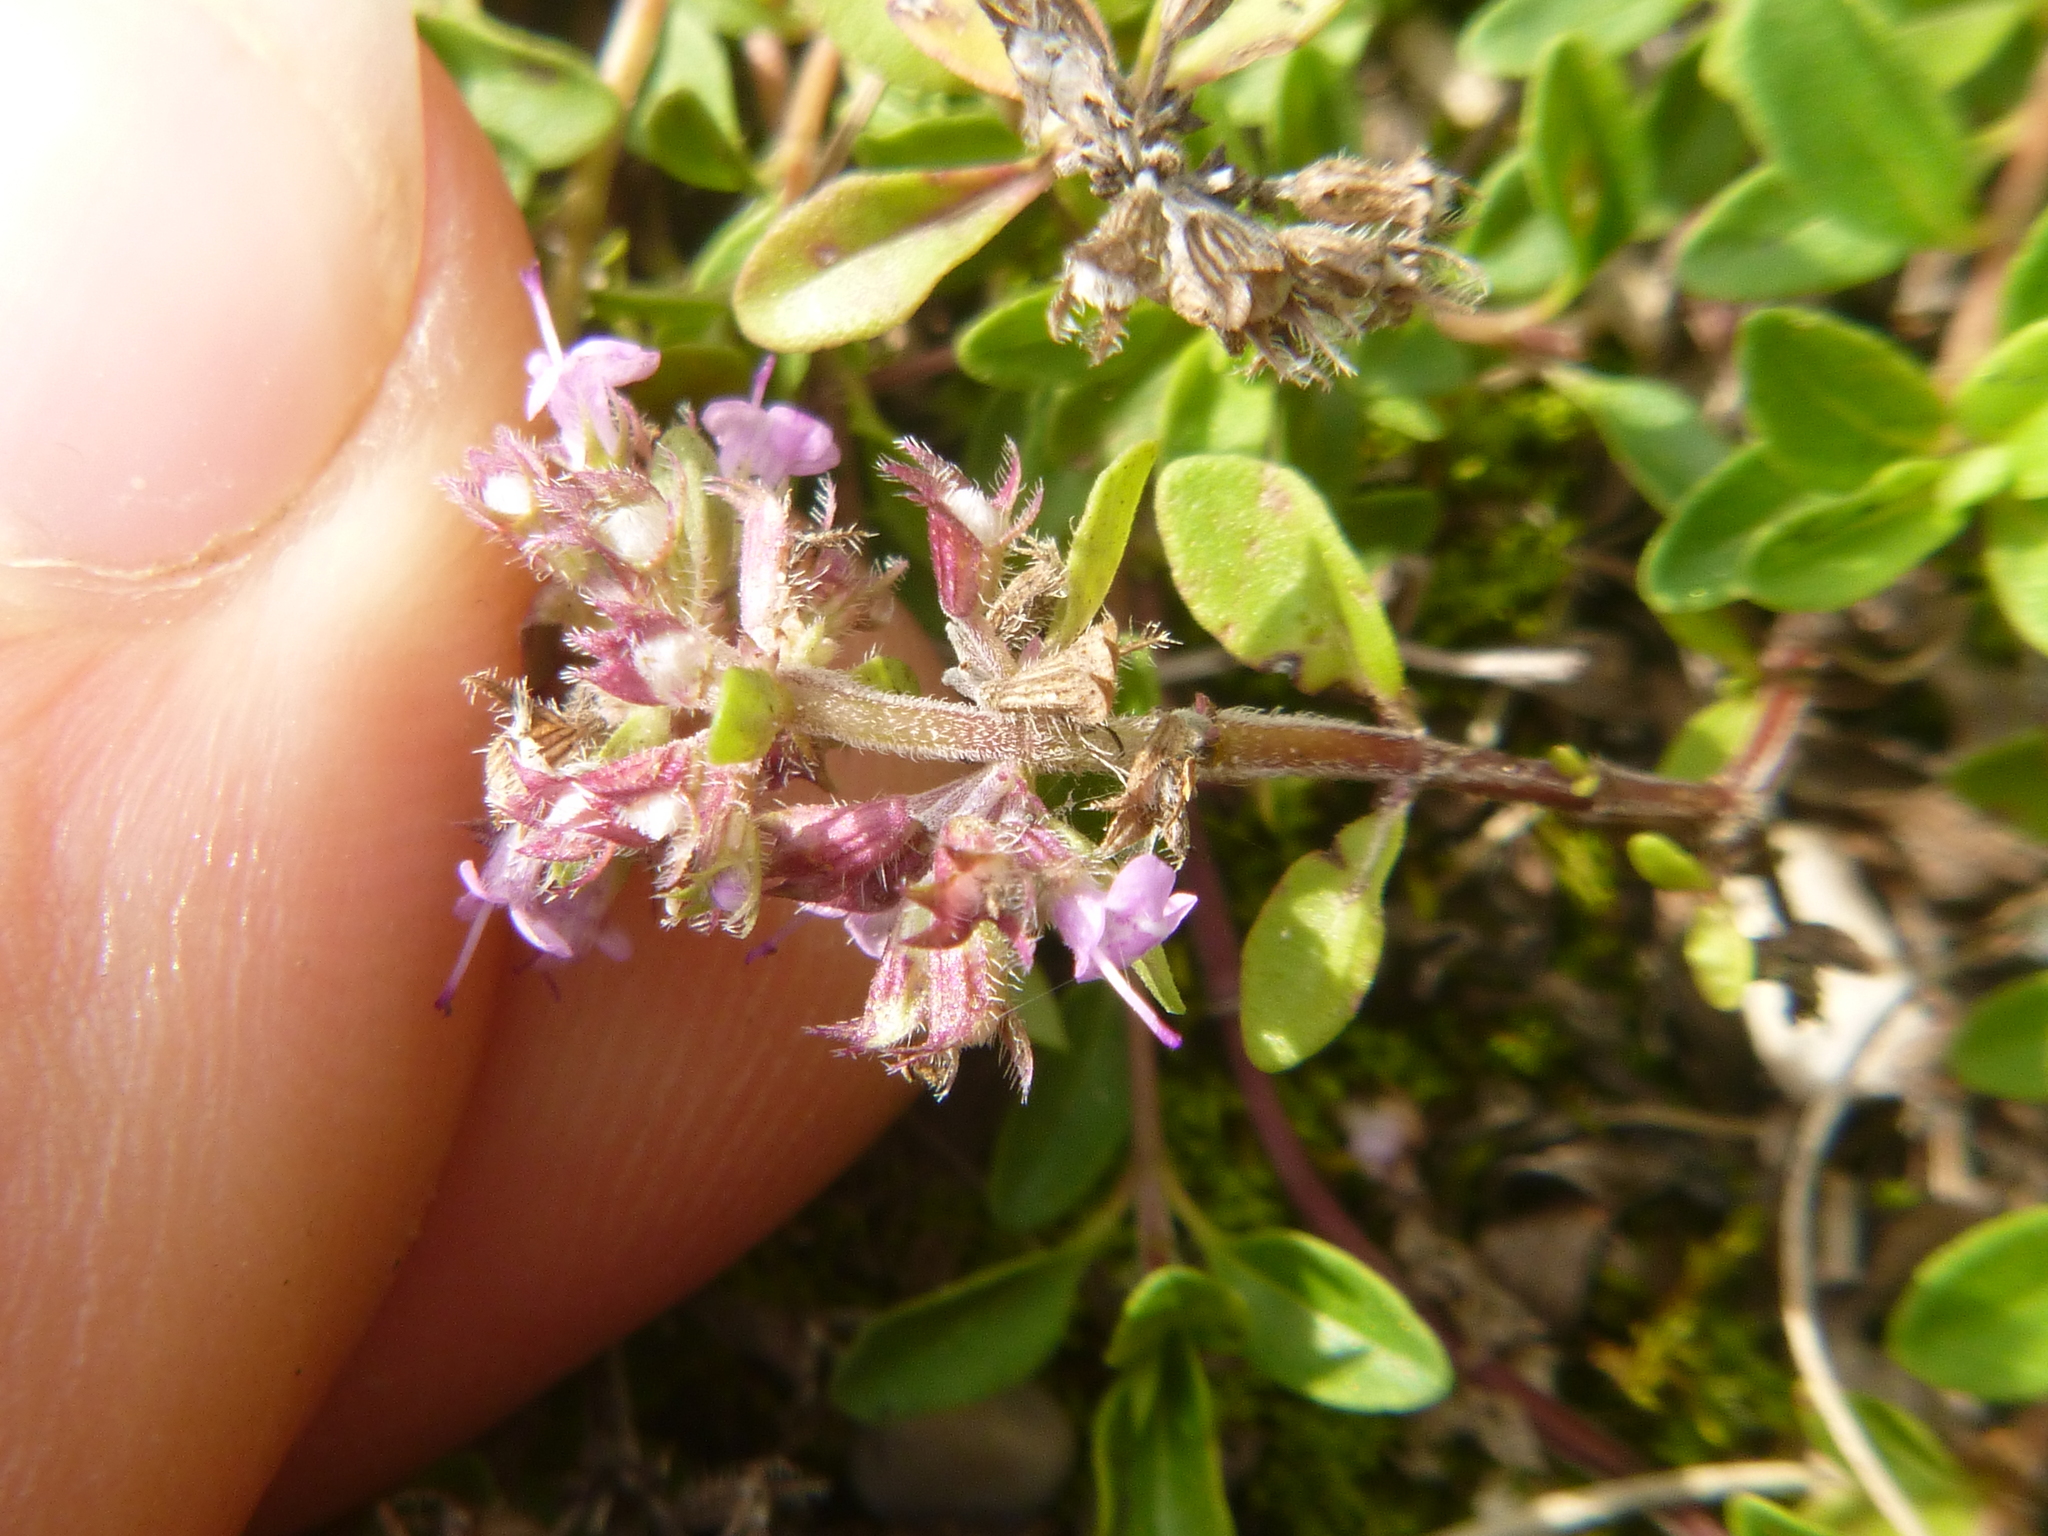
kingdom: Plantae
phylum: Tracheophyta
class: Magnoliopsida
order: Lamiales
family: Lamiaceae
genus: Thymus
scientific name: Thymus pulegioides
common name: Large thyme
